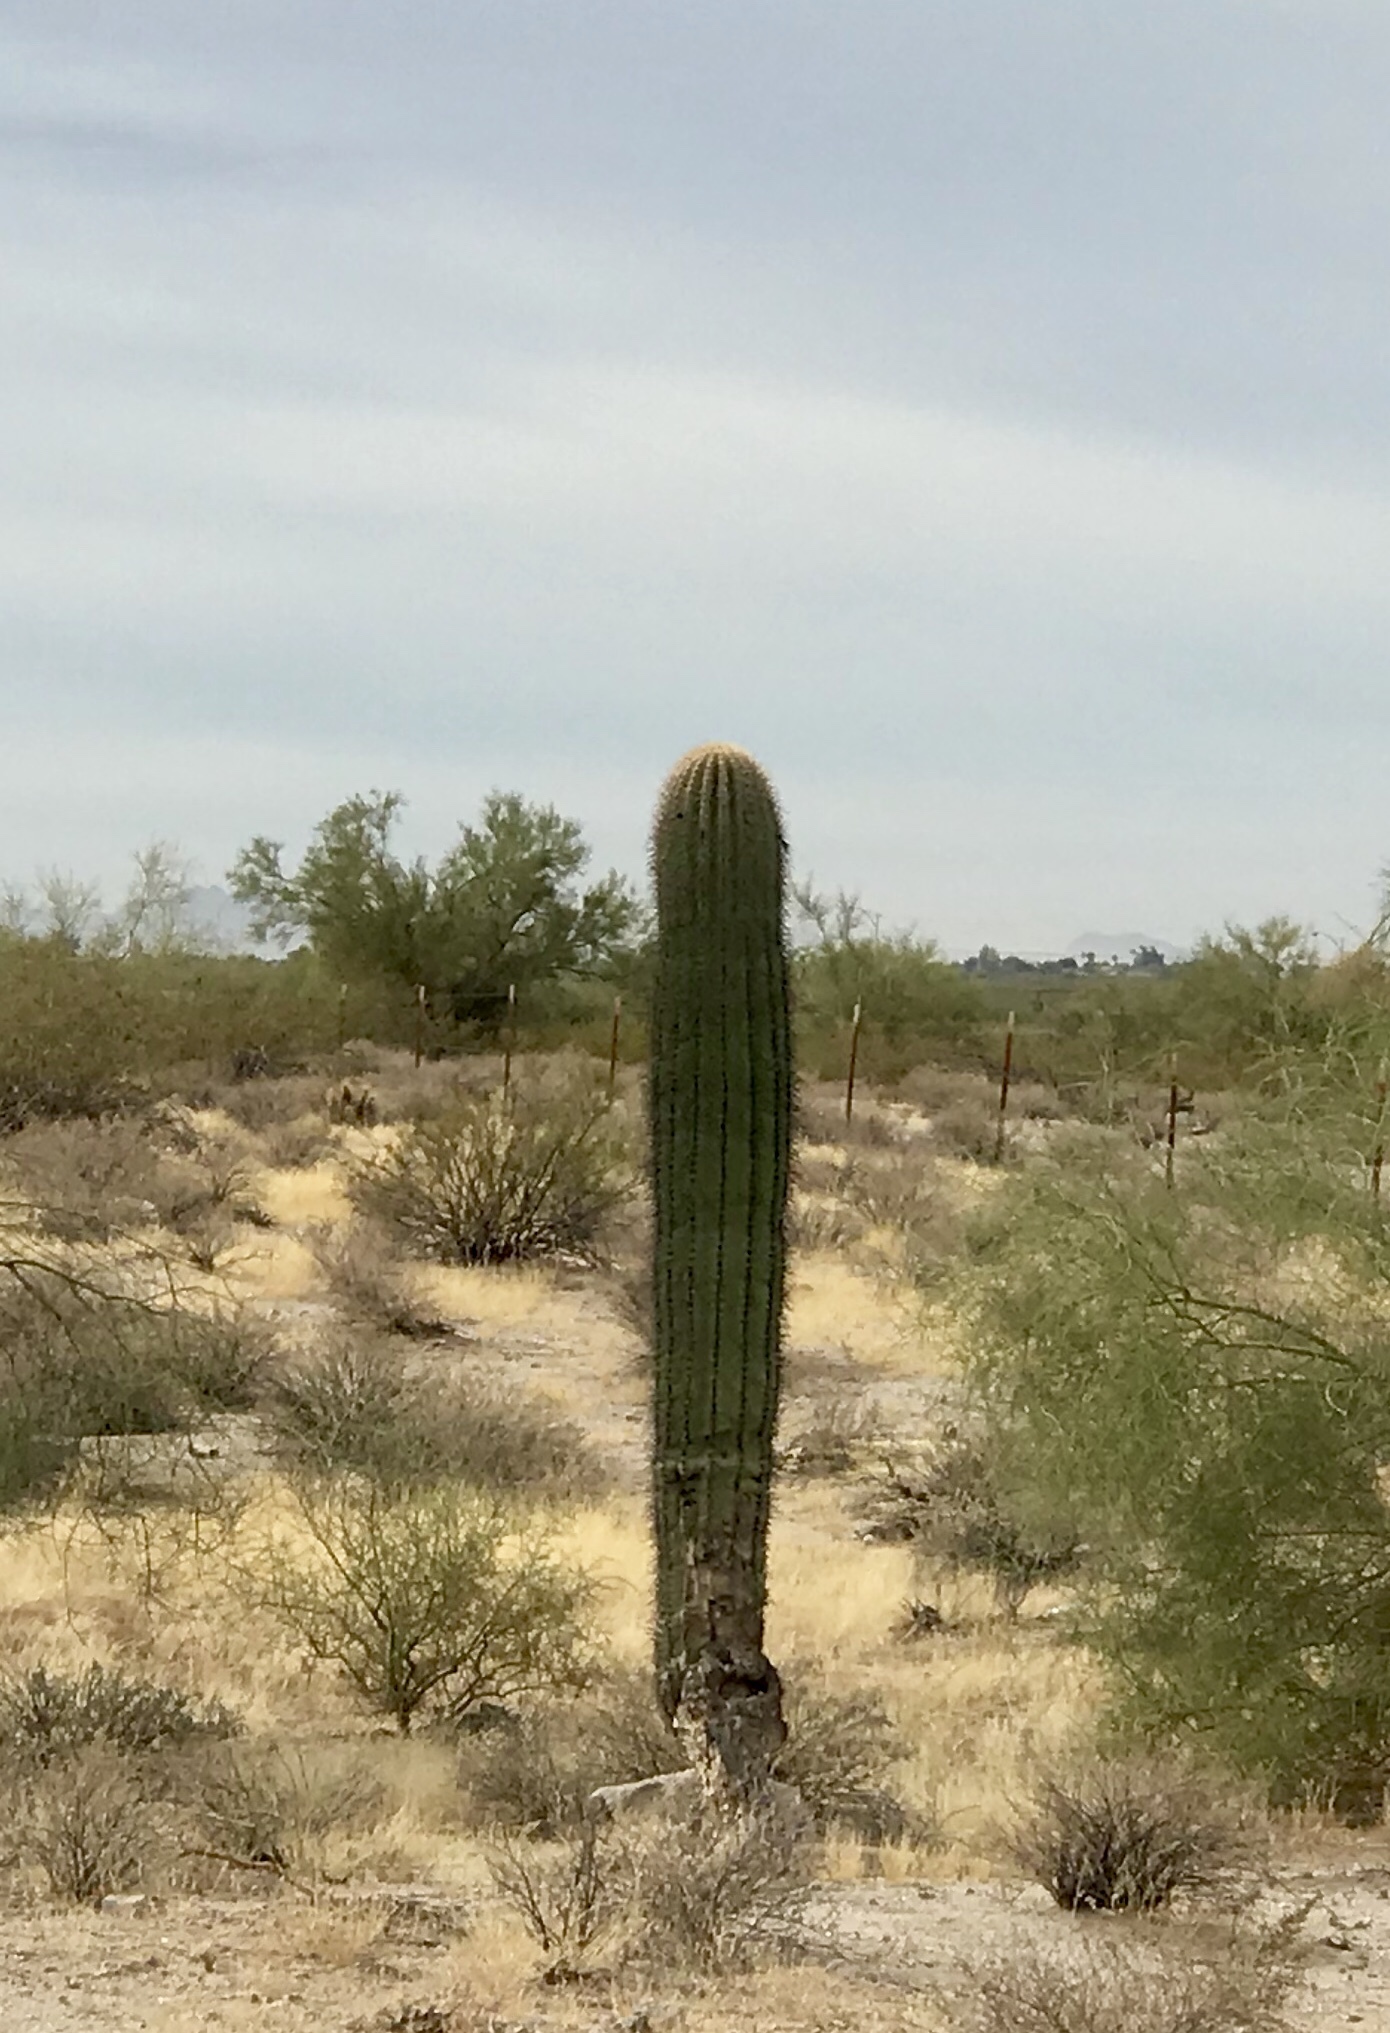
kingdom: Plantae
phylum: Tracheophyta
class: Magnoliopsida
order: Caryophyllales
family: Cactaceae
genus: Carnegiea
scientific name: Carnegiea gigantea
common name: Saguaro
